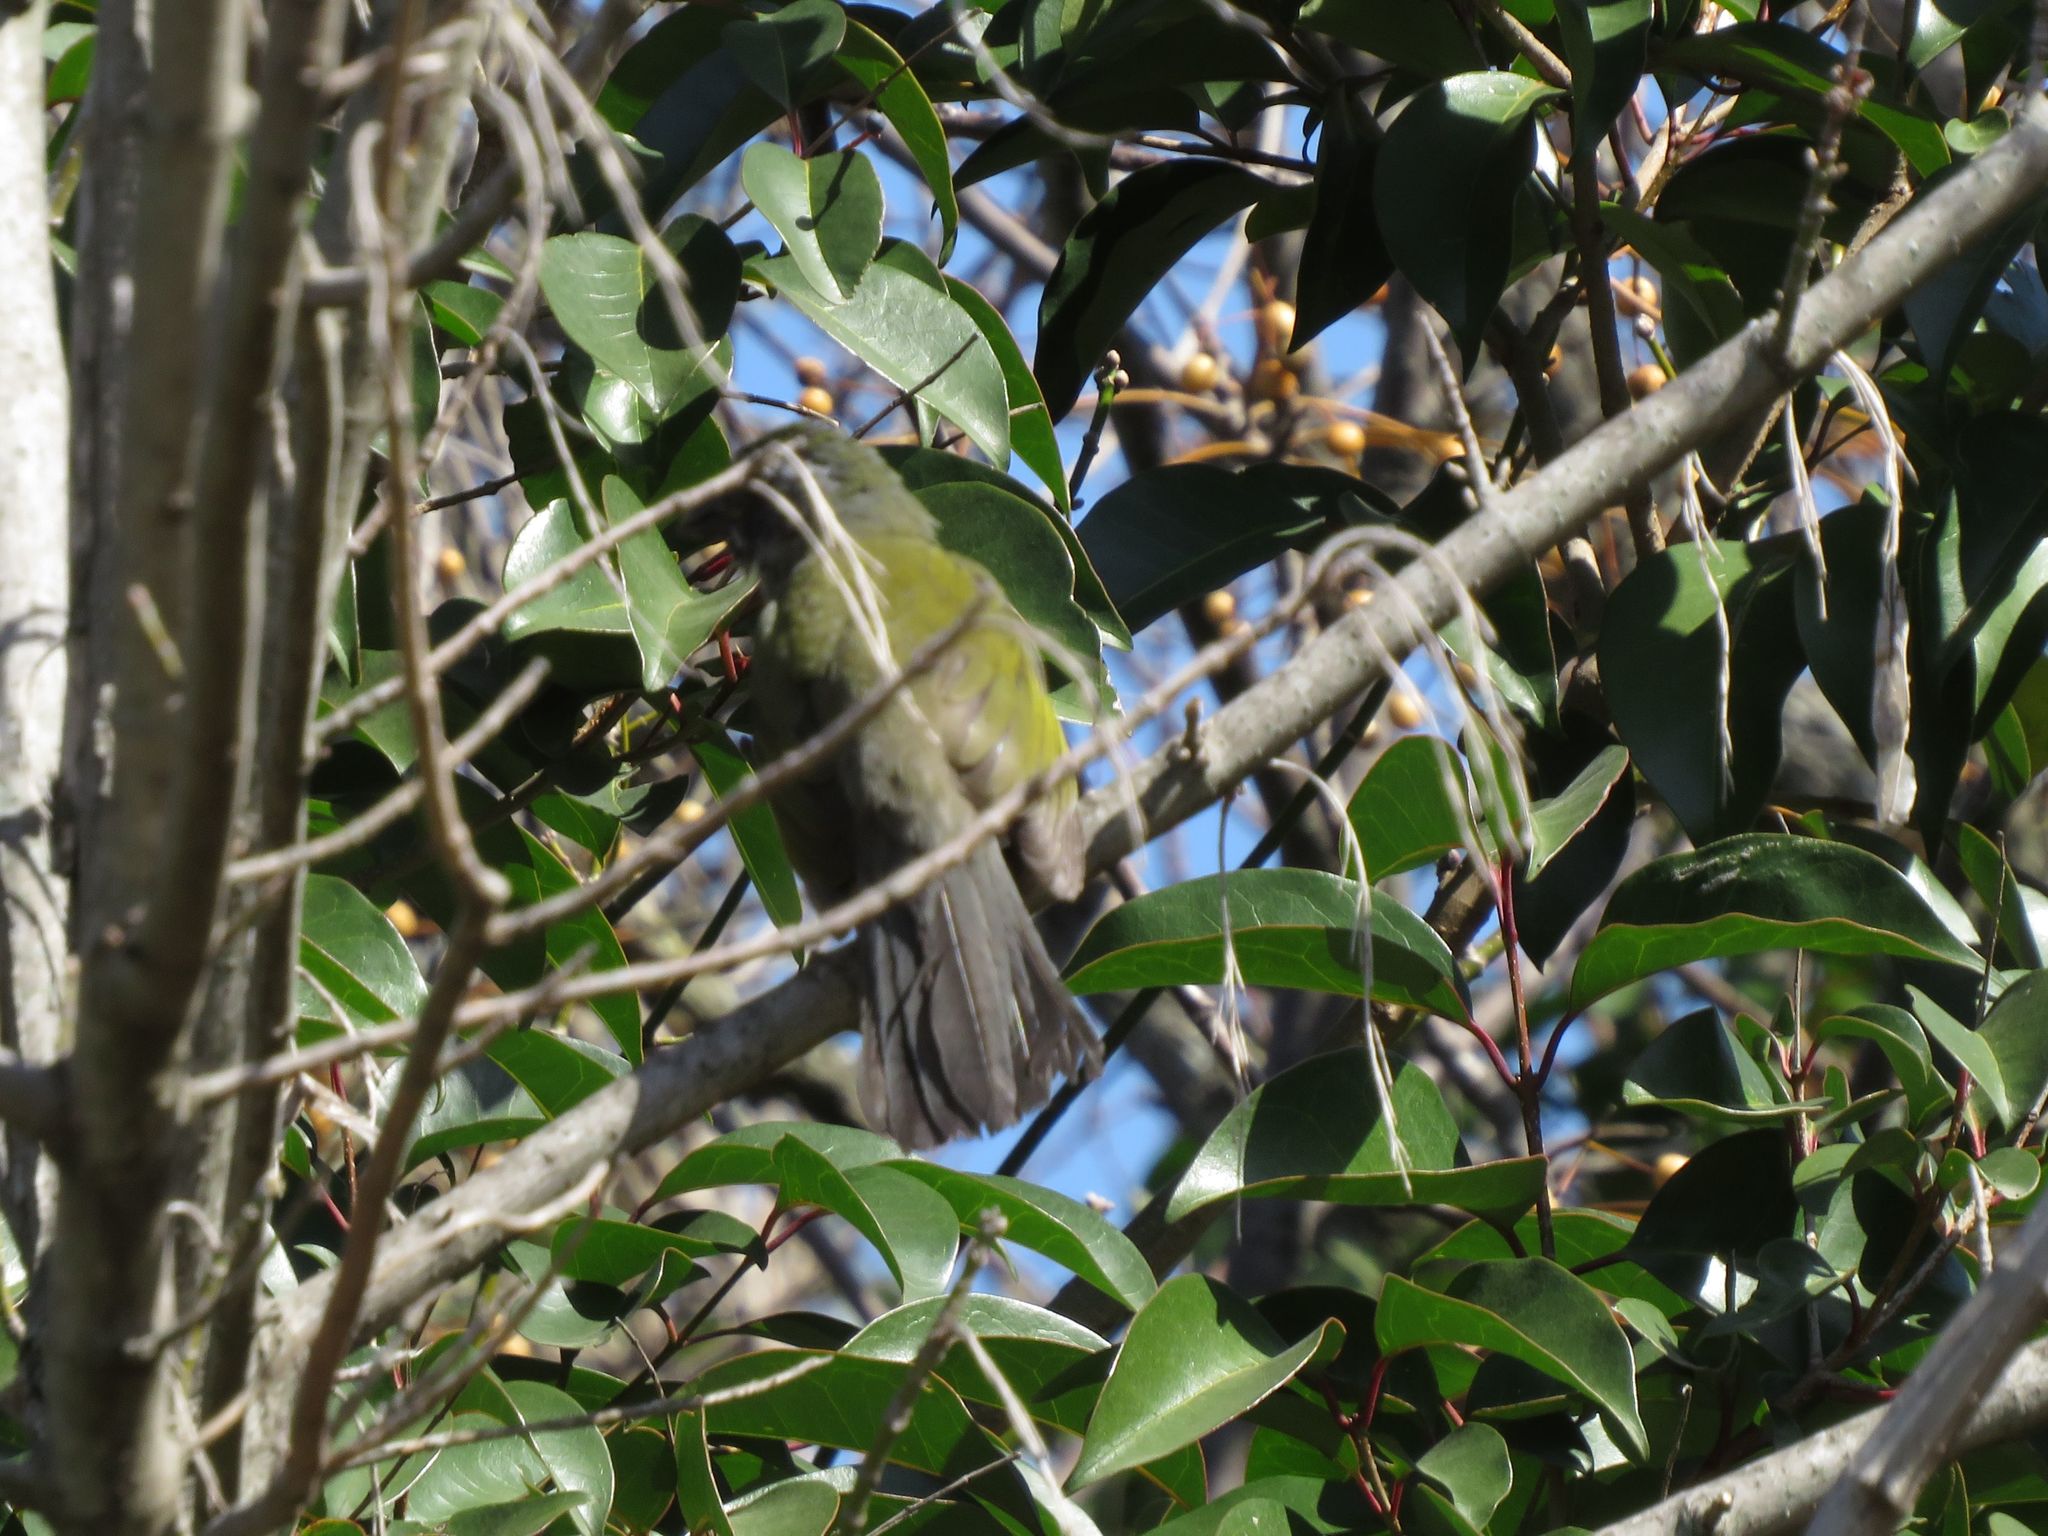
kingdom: Animalia
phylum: Chordata
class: Aves
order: Passeriformes
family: Thraupidae
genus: Saltator
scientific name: Saltator similis
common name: Green-winged saltator
